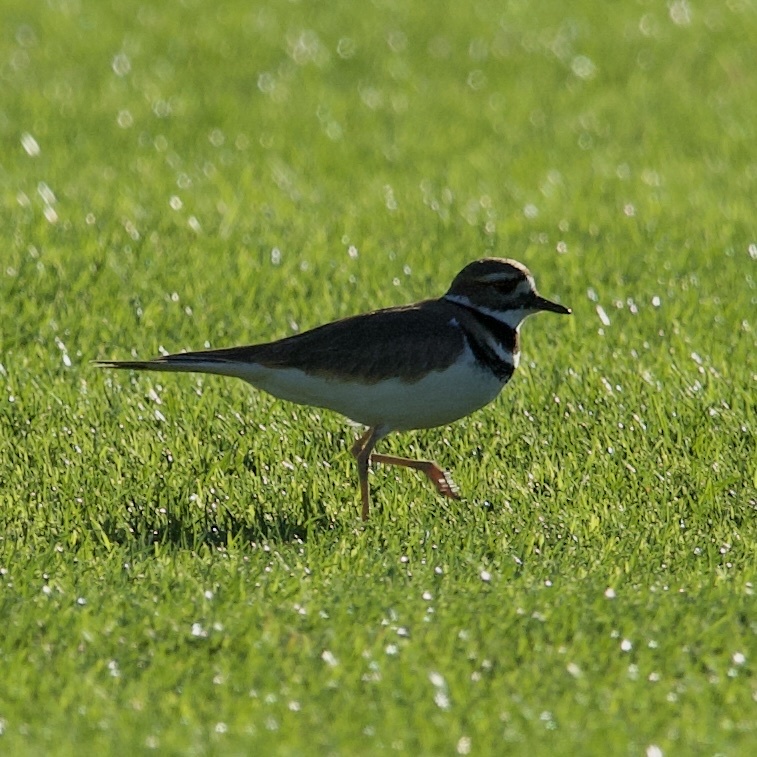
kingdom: Animalia
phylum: Chordata
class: Aves
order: Charadriiformes
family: Charadriidae
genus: Charadrius
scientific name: Charadrius vociferus
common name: Killdeer
